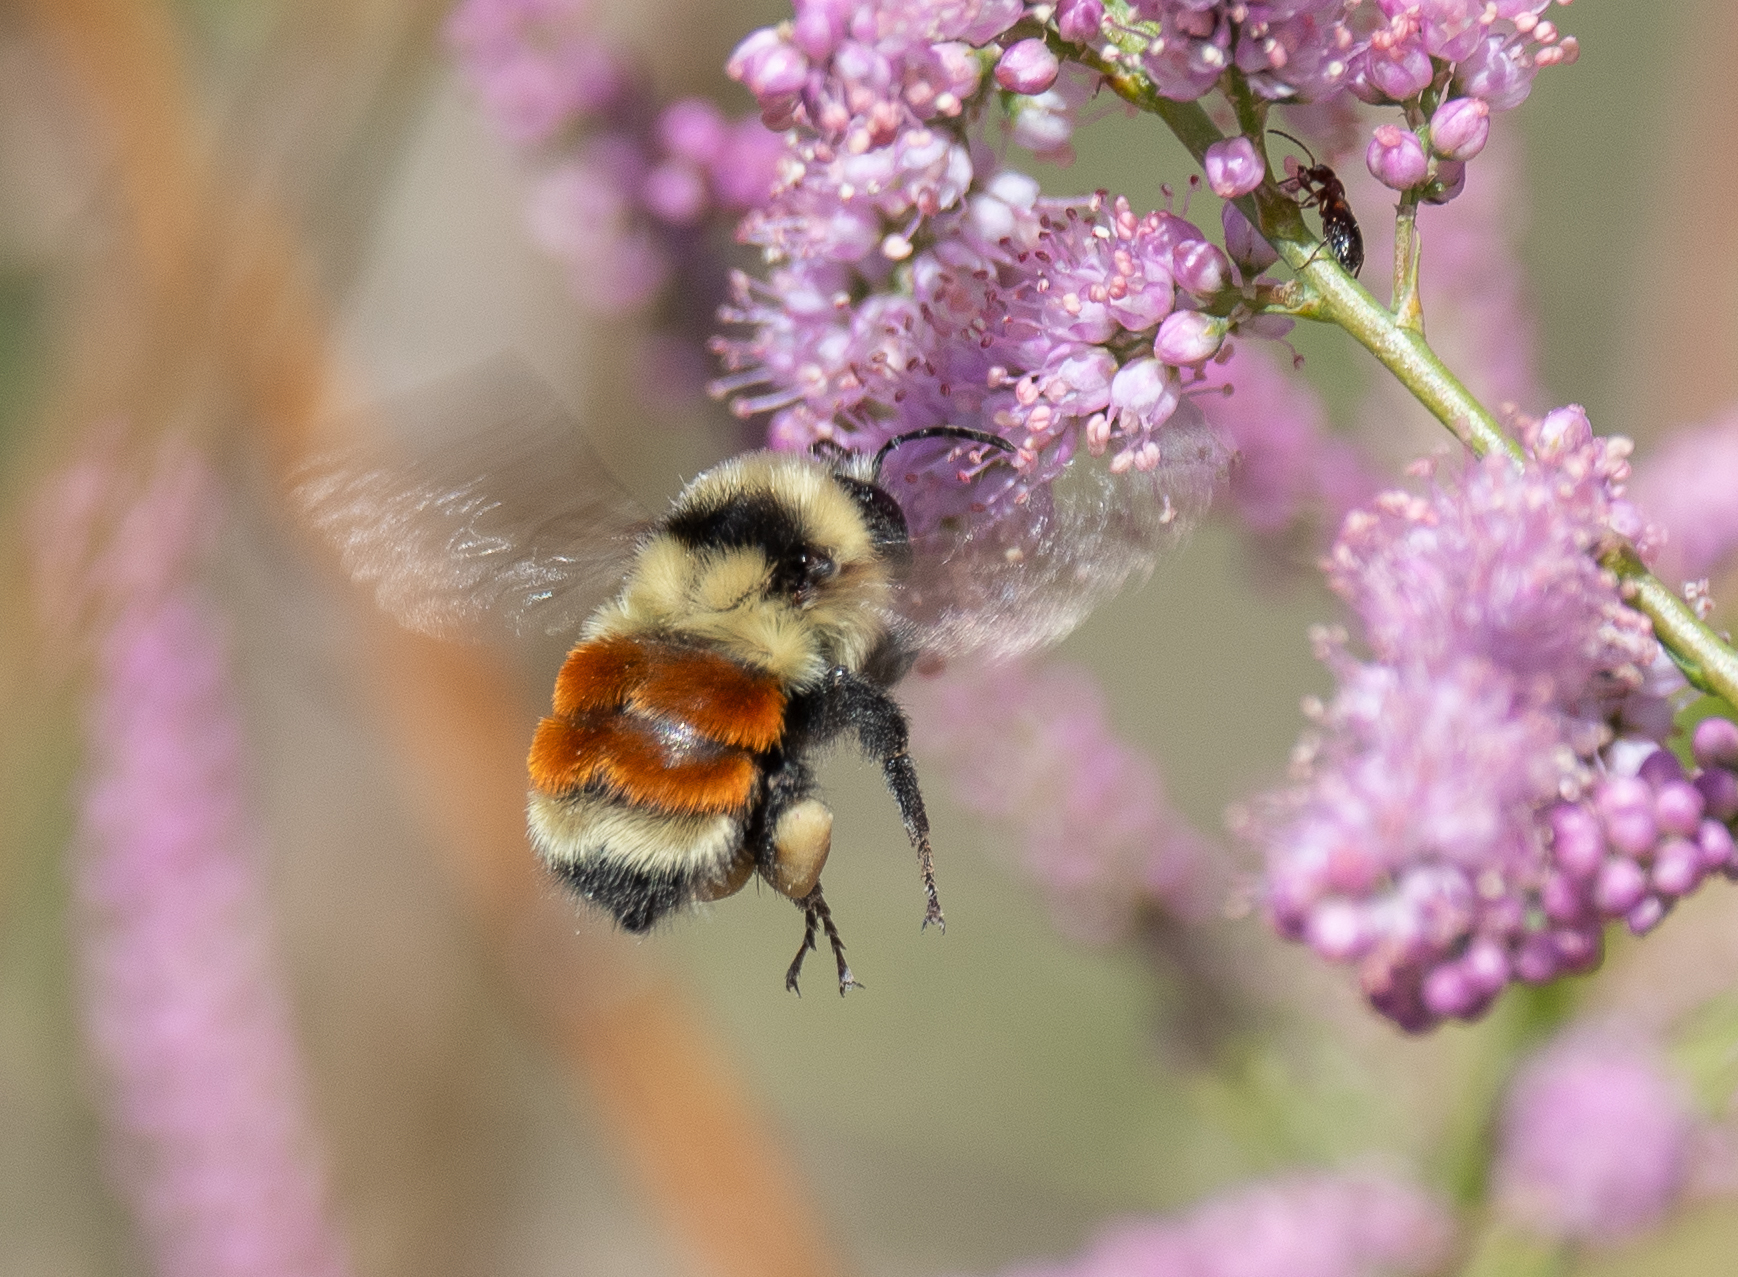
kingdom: Animalia
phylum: Arthropoda
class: Insecta
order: Hymenoptera
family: Apidae
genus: Bombus
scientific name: Bombus huntii
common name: Hunt bumble bee
